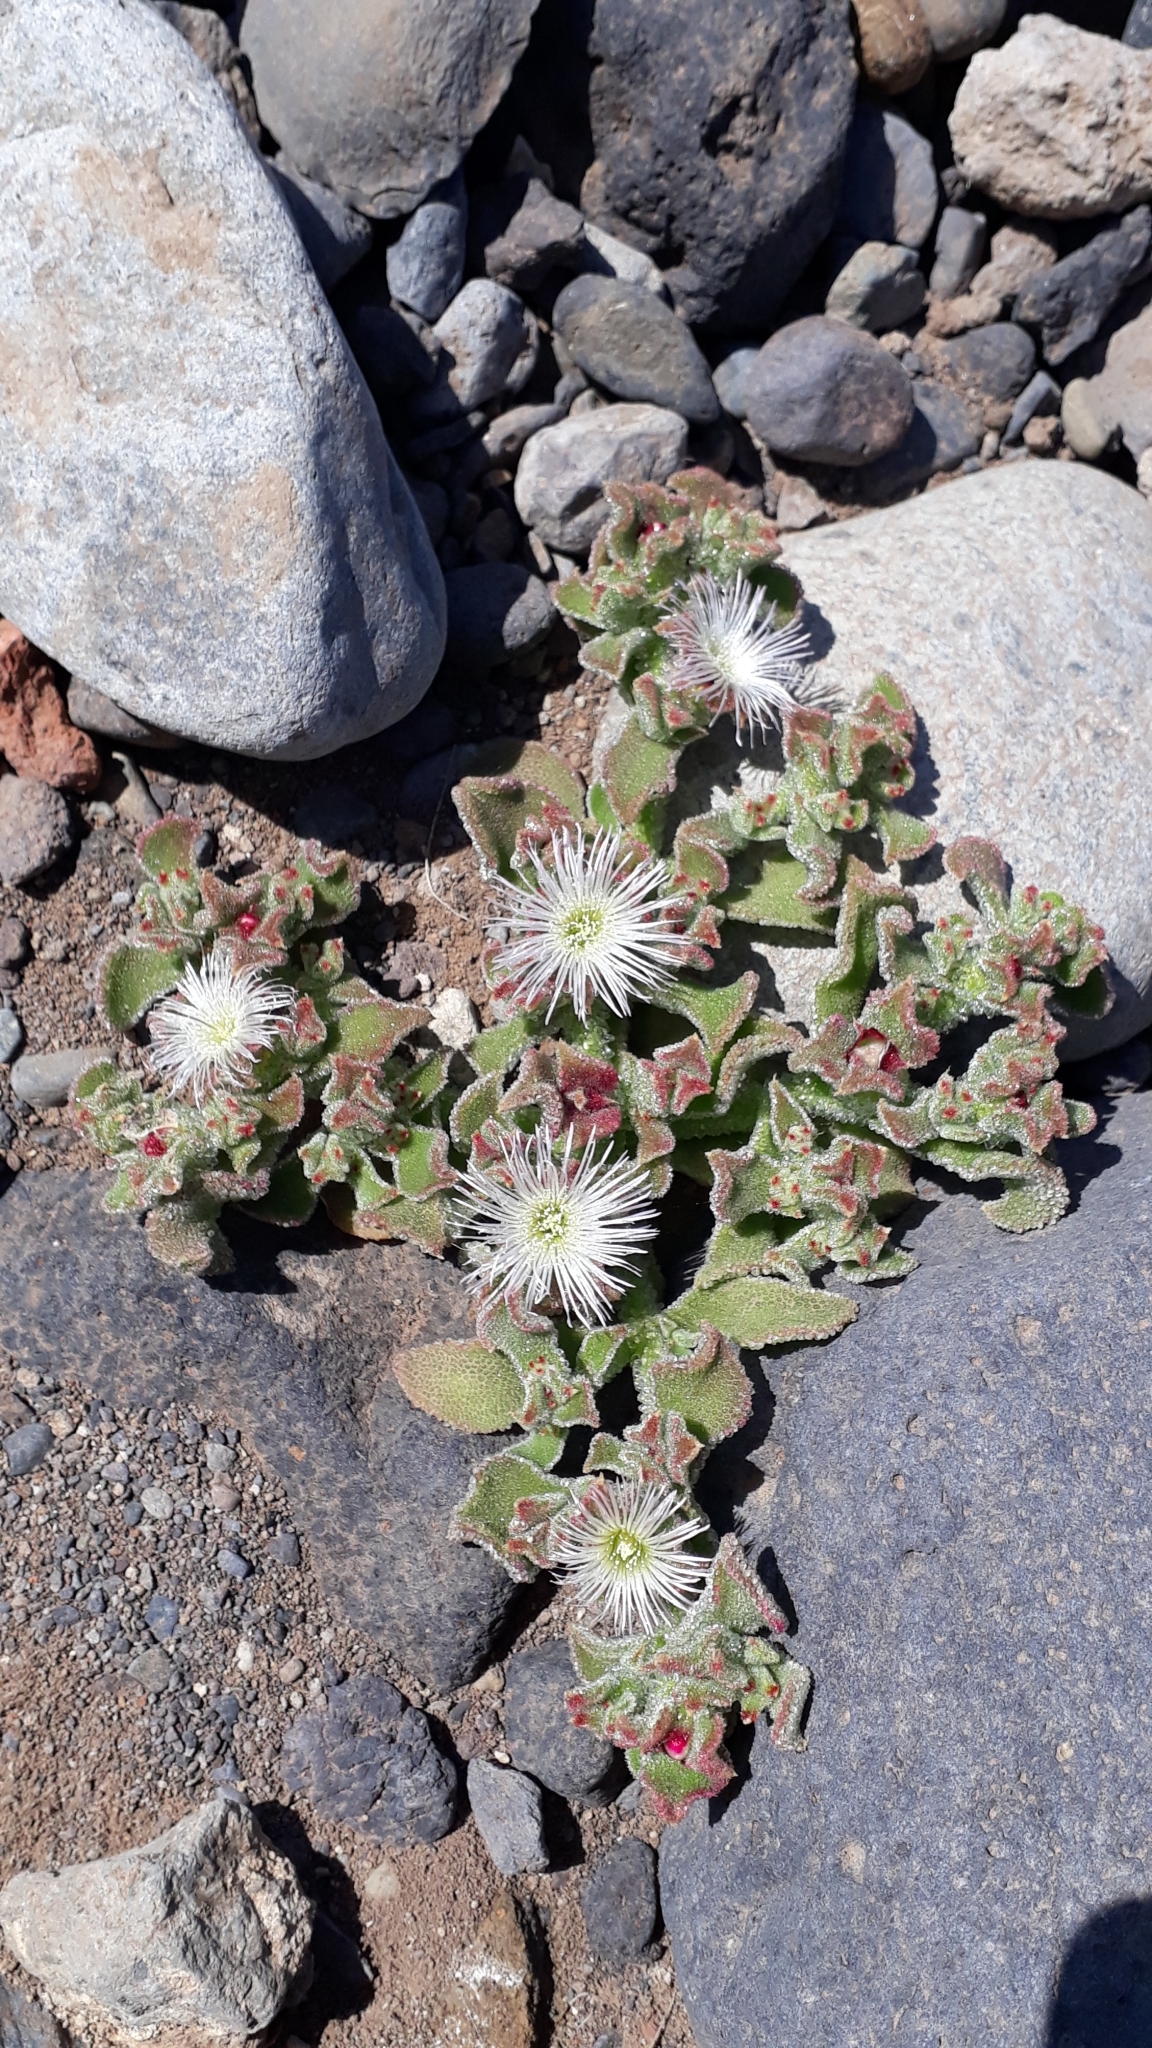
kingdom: Plantae
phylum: Tracheophyta
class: Magnoliopsida
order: Caryophyllales
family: Aizoaceae
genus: Mesembryanthemum
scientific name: Mesembryanthemum crystallinum
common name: Common iceplant
